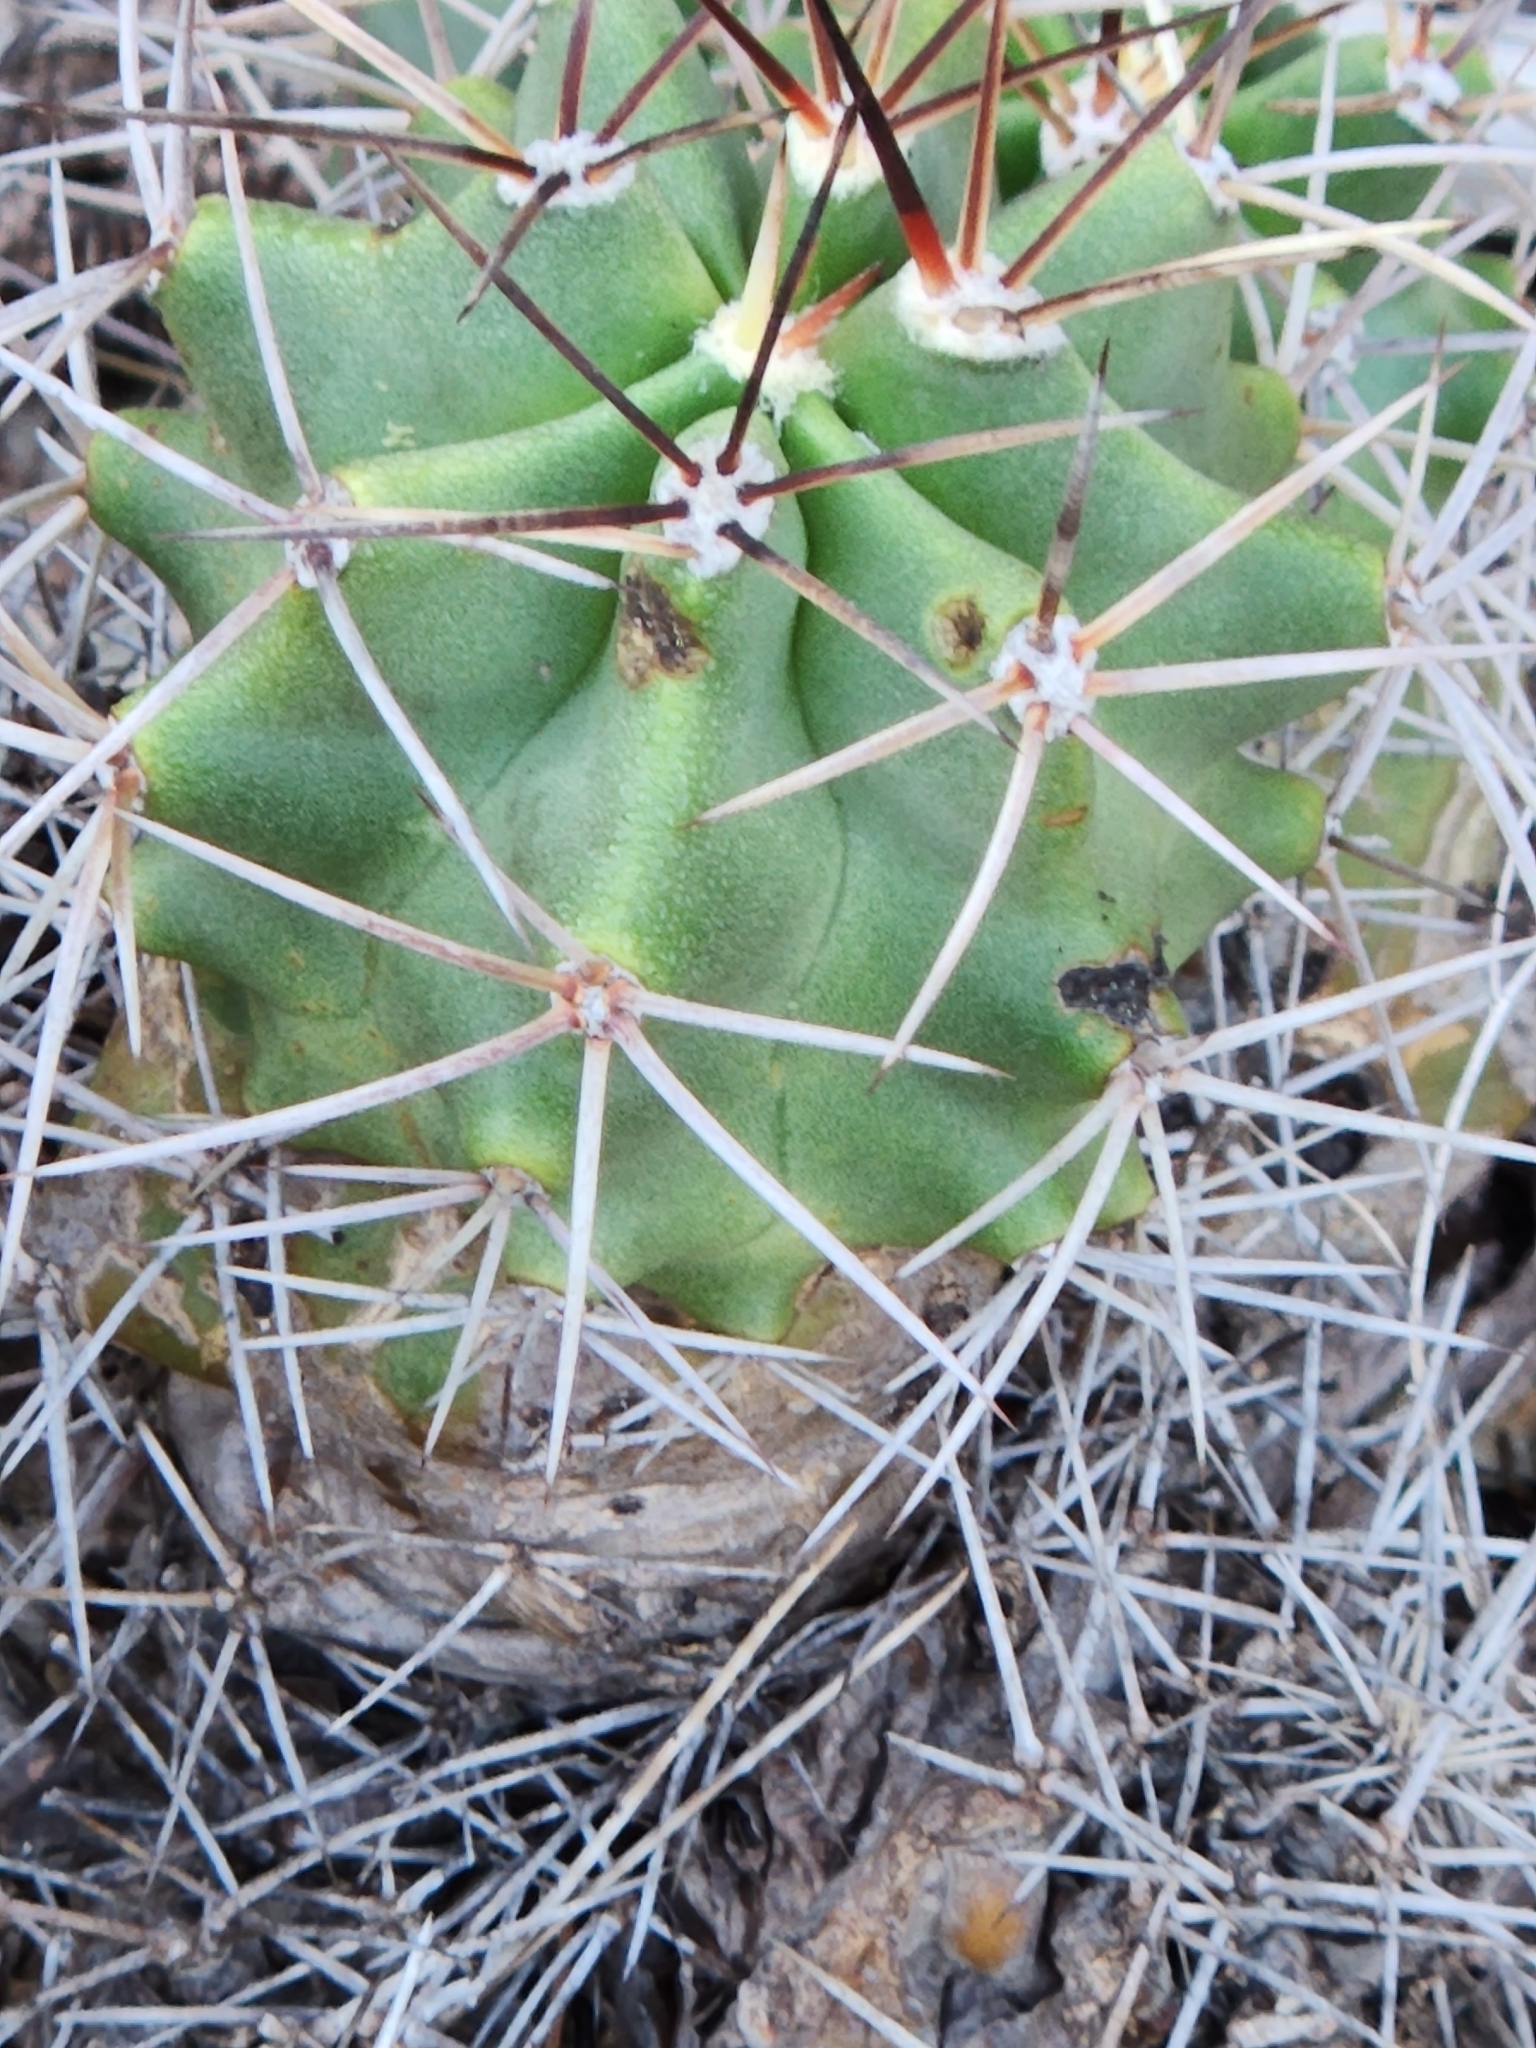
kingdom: Plantae
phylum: Tracheophyta
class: Magnoliopsida
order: Caryophyllales
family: Cactaceae
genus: Echinocereus
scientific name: Echinocereus coccineus
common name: Scarlet hedgehog cactus
